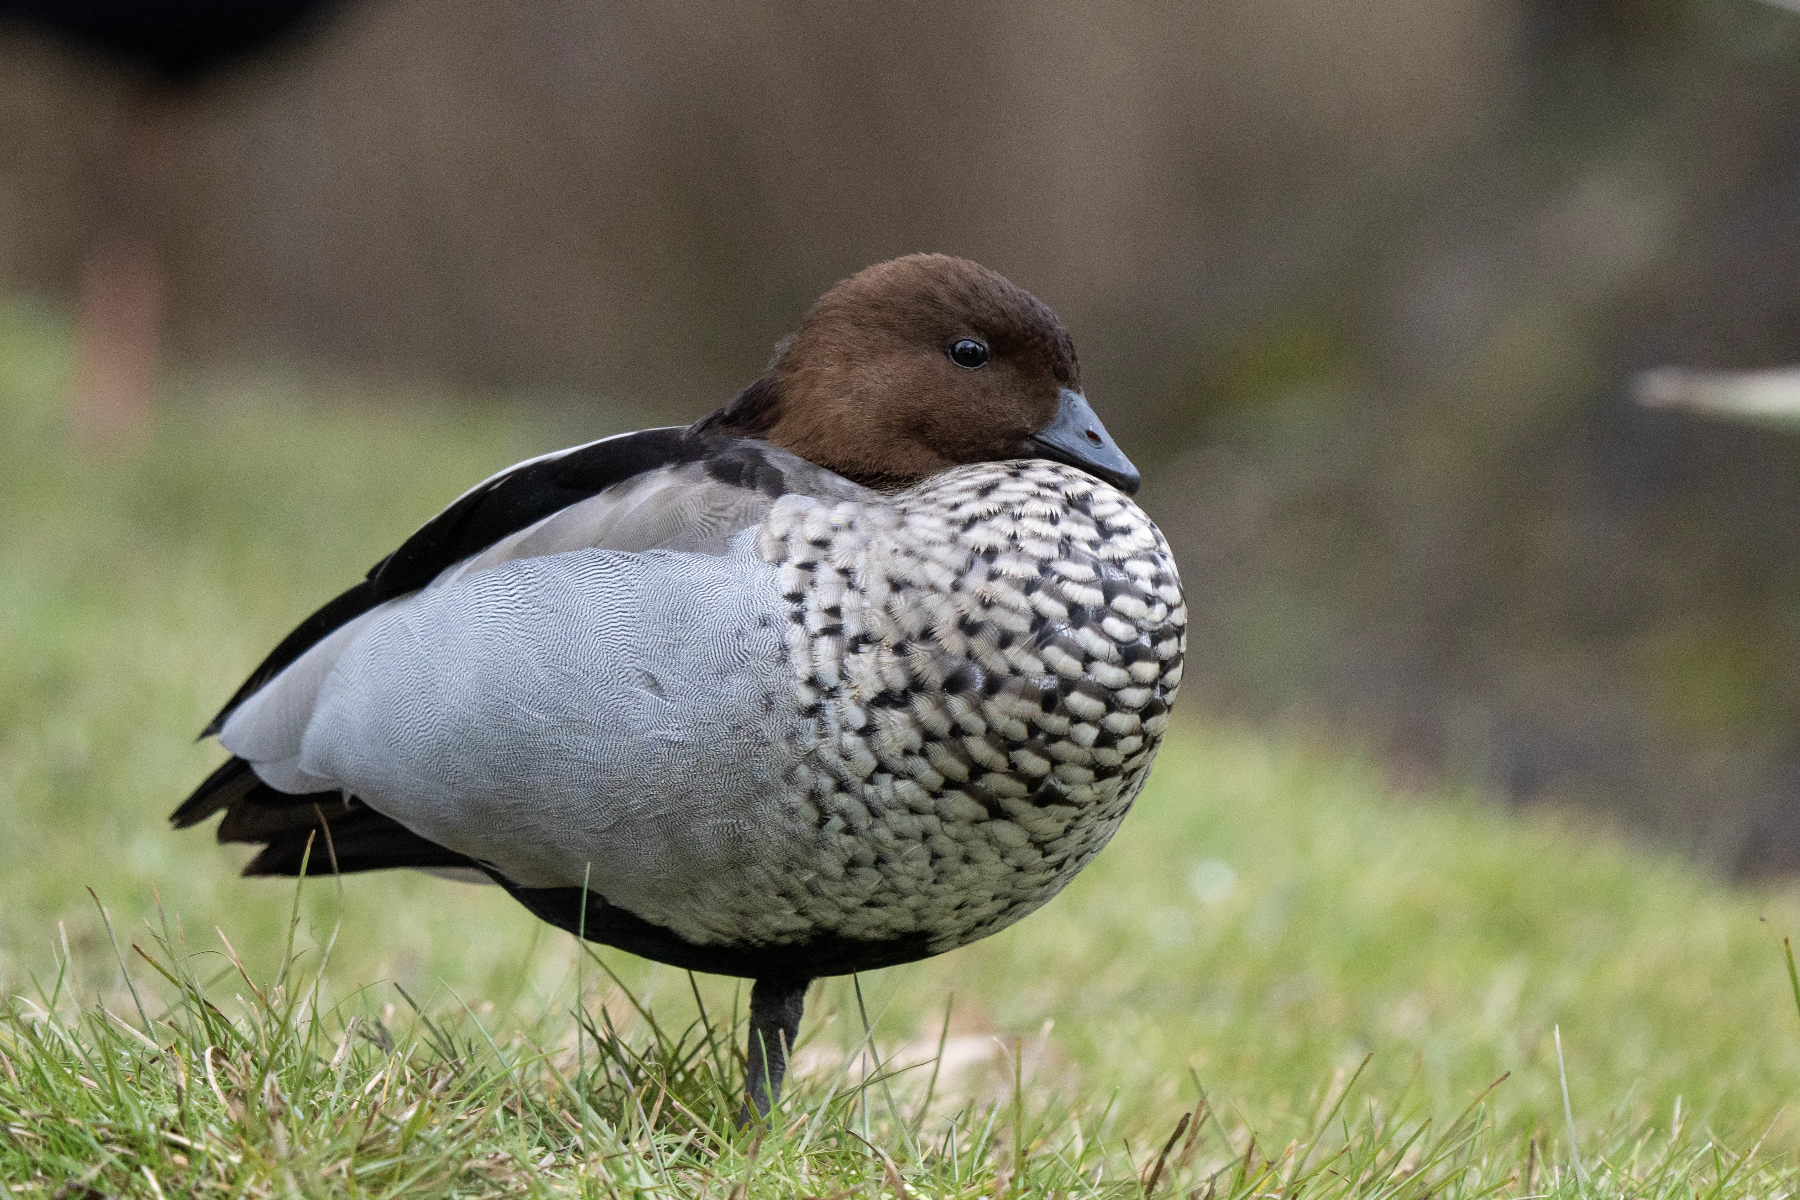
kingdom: Animalia
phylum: Chordata
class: Aves
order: Anseriformes
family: Anatidae
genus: Chenonetta
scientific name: Chenonetta jubata
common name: Maned duck
